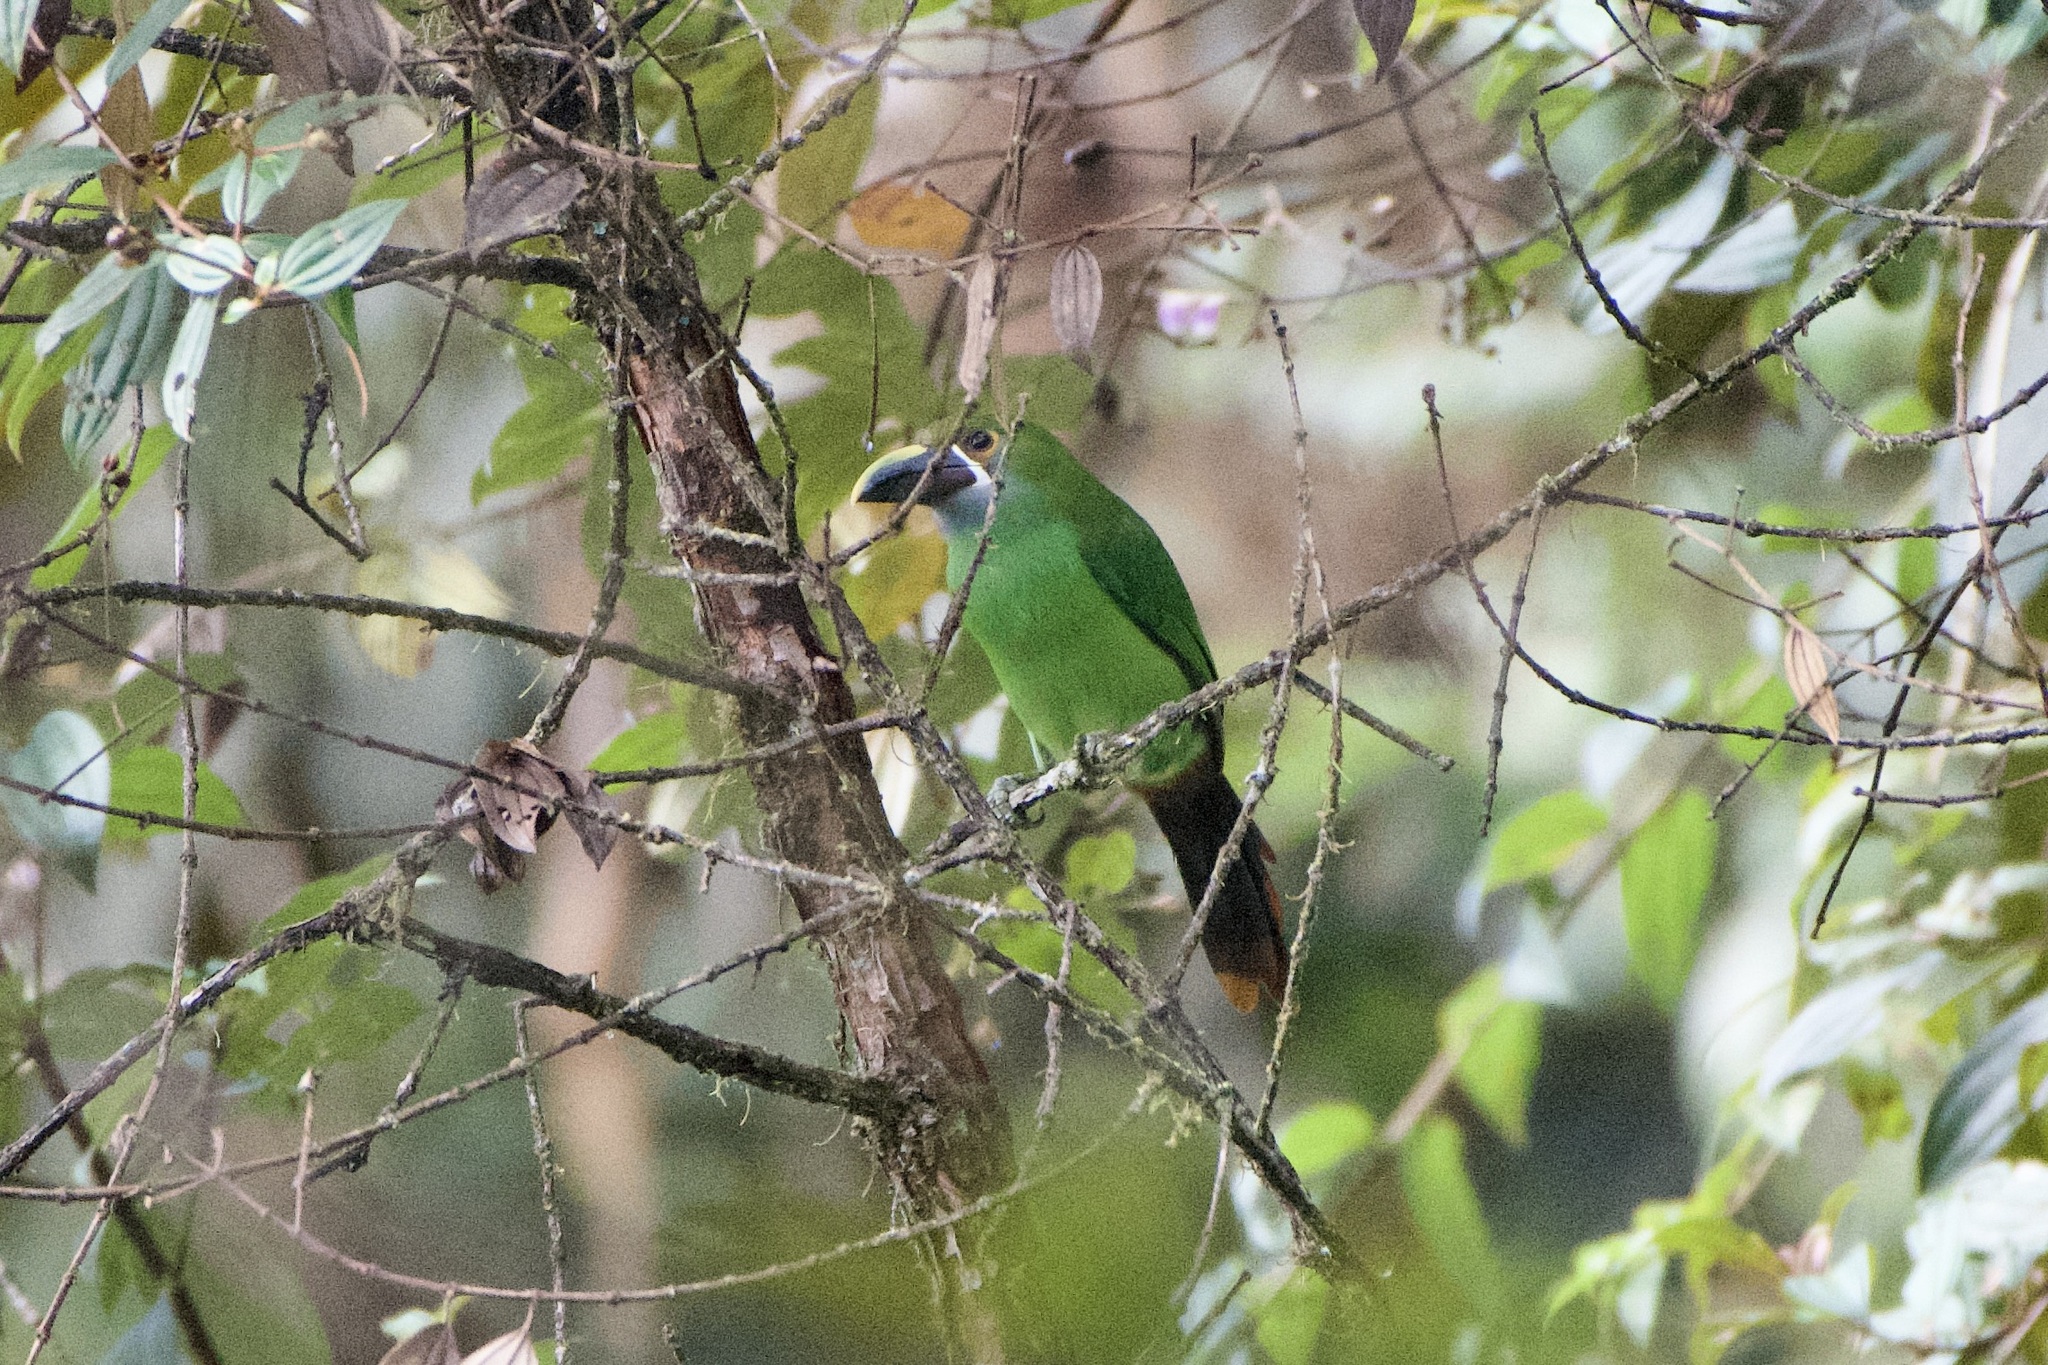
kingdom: Animalia
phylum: Chordata
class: Aves
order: Piciformes
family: Ramphastidae
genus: Aulacorhynchus
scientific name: Aulacorhynchus albivitta
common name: White-throated toucanet
